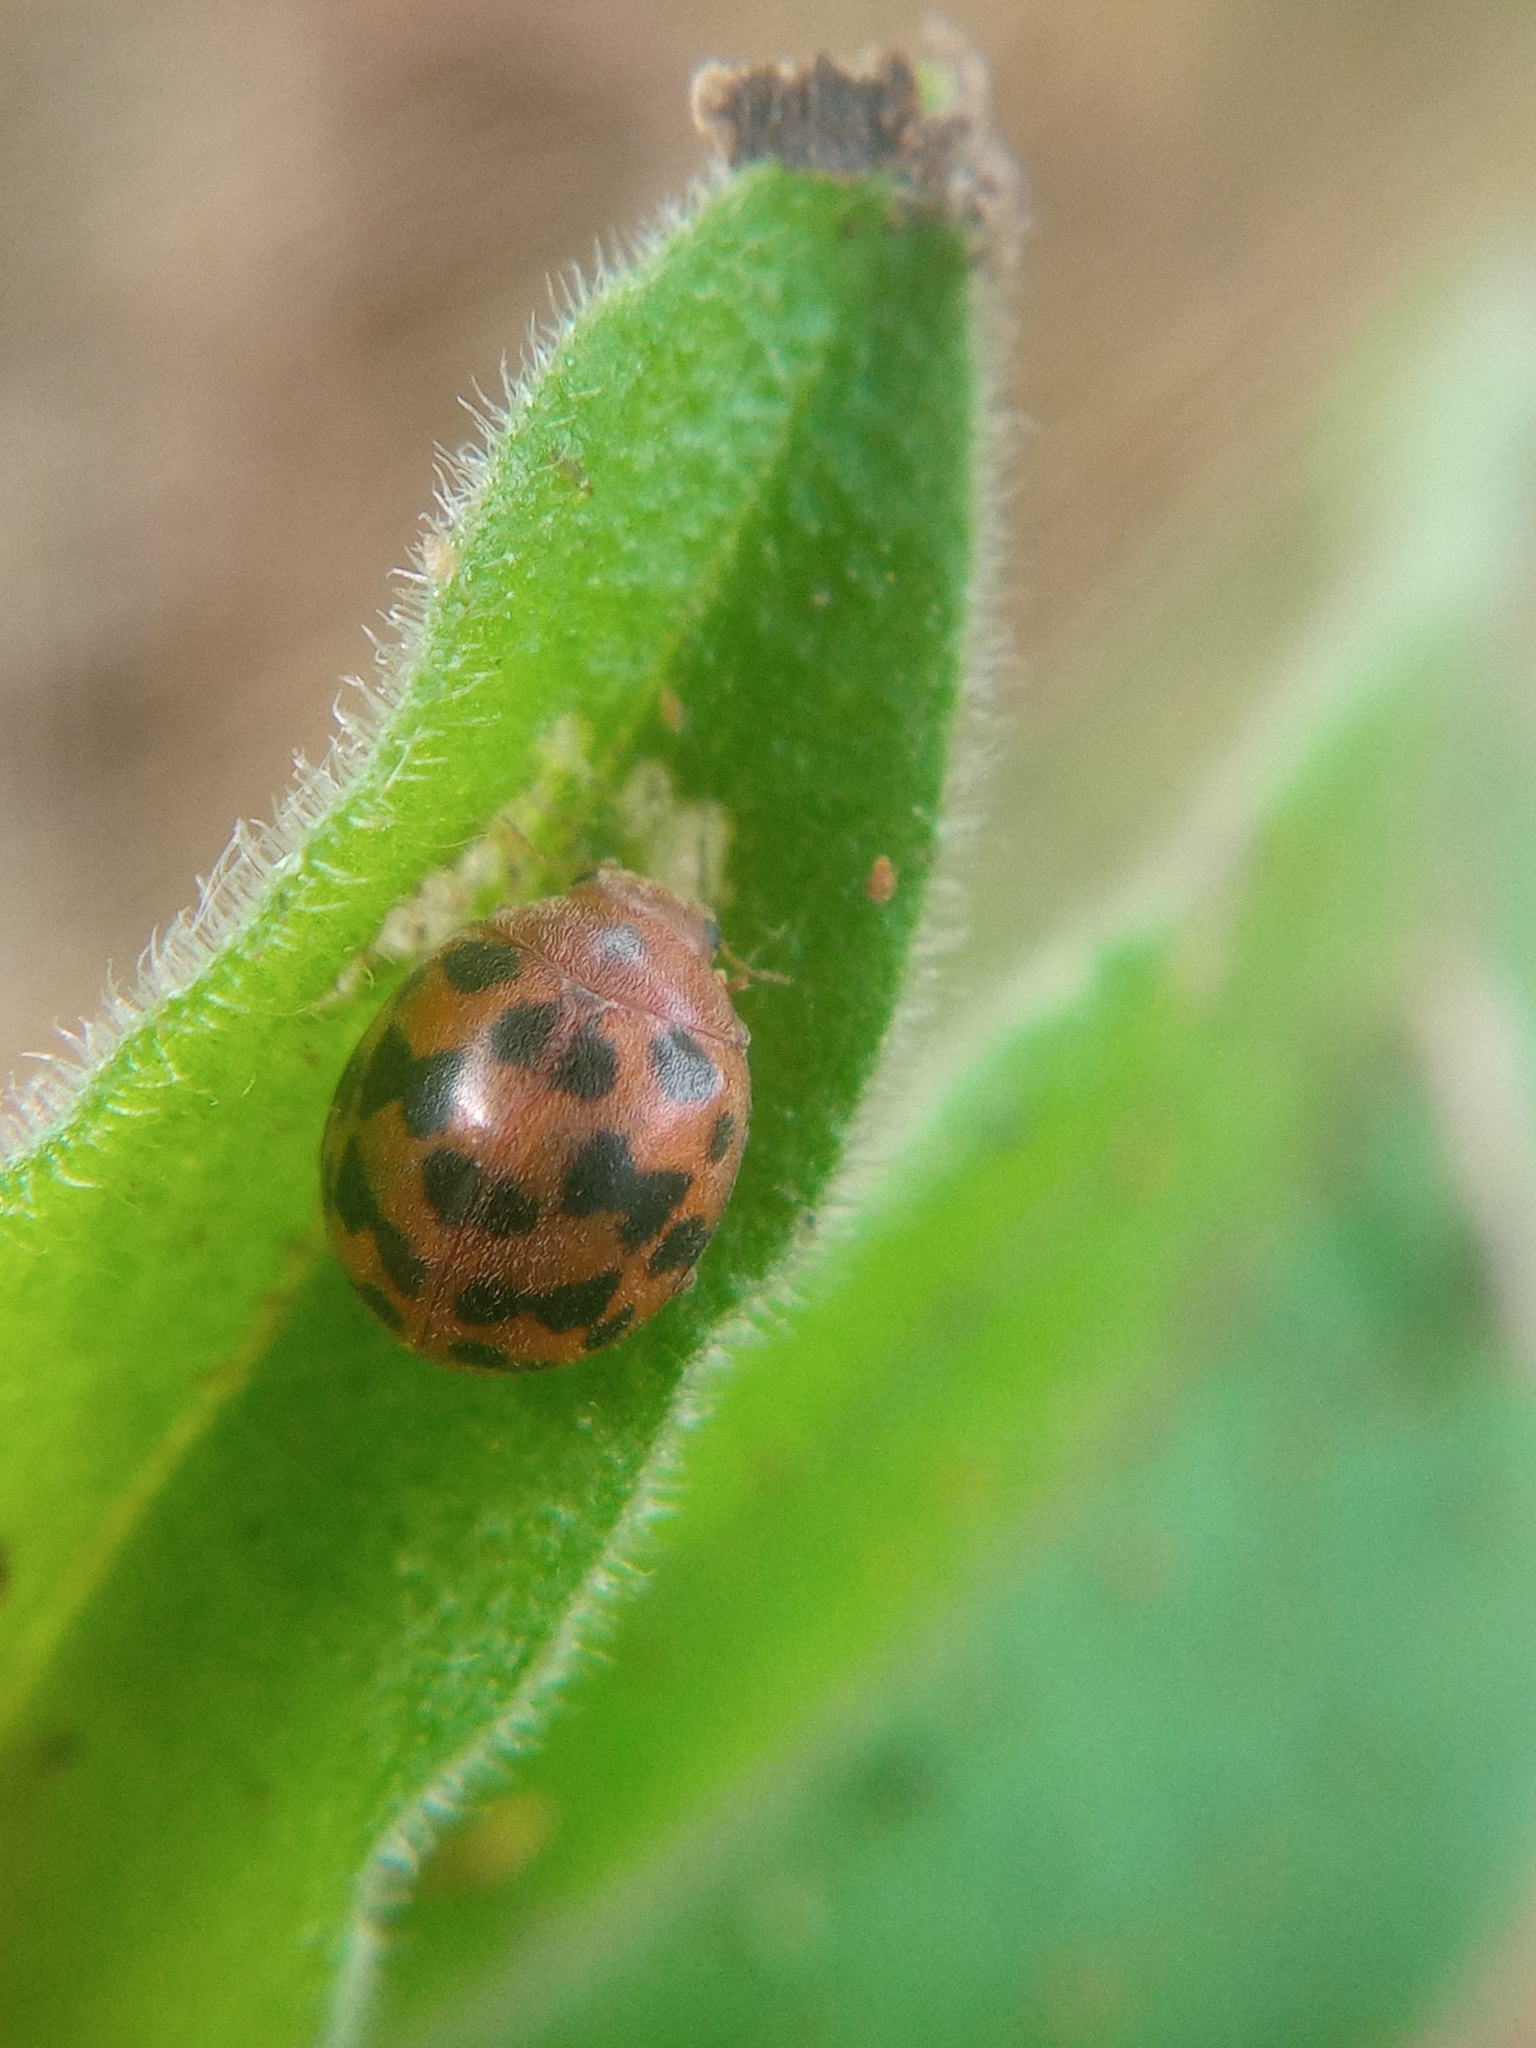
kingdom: Animalia
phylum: Arthropoda
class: Insecta
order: Coleoptera
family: Coccinellidae
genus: Subcoccinella
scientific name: Subcoccinella vigintiquatuorpunctata
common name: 24-spot ladybird
